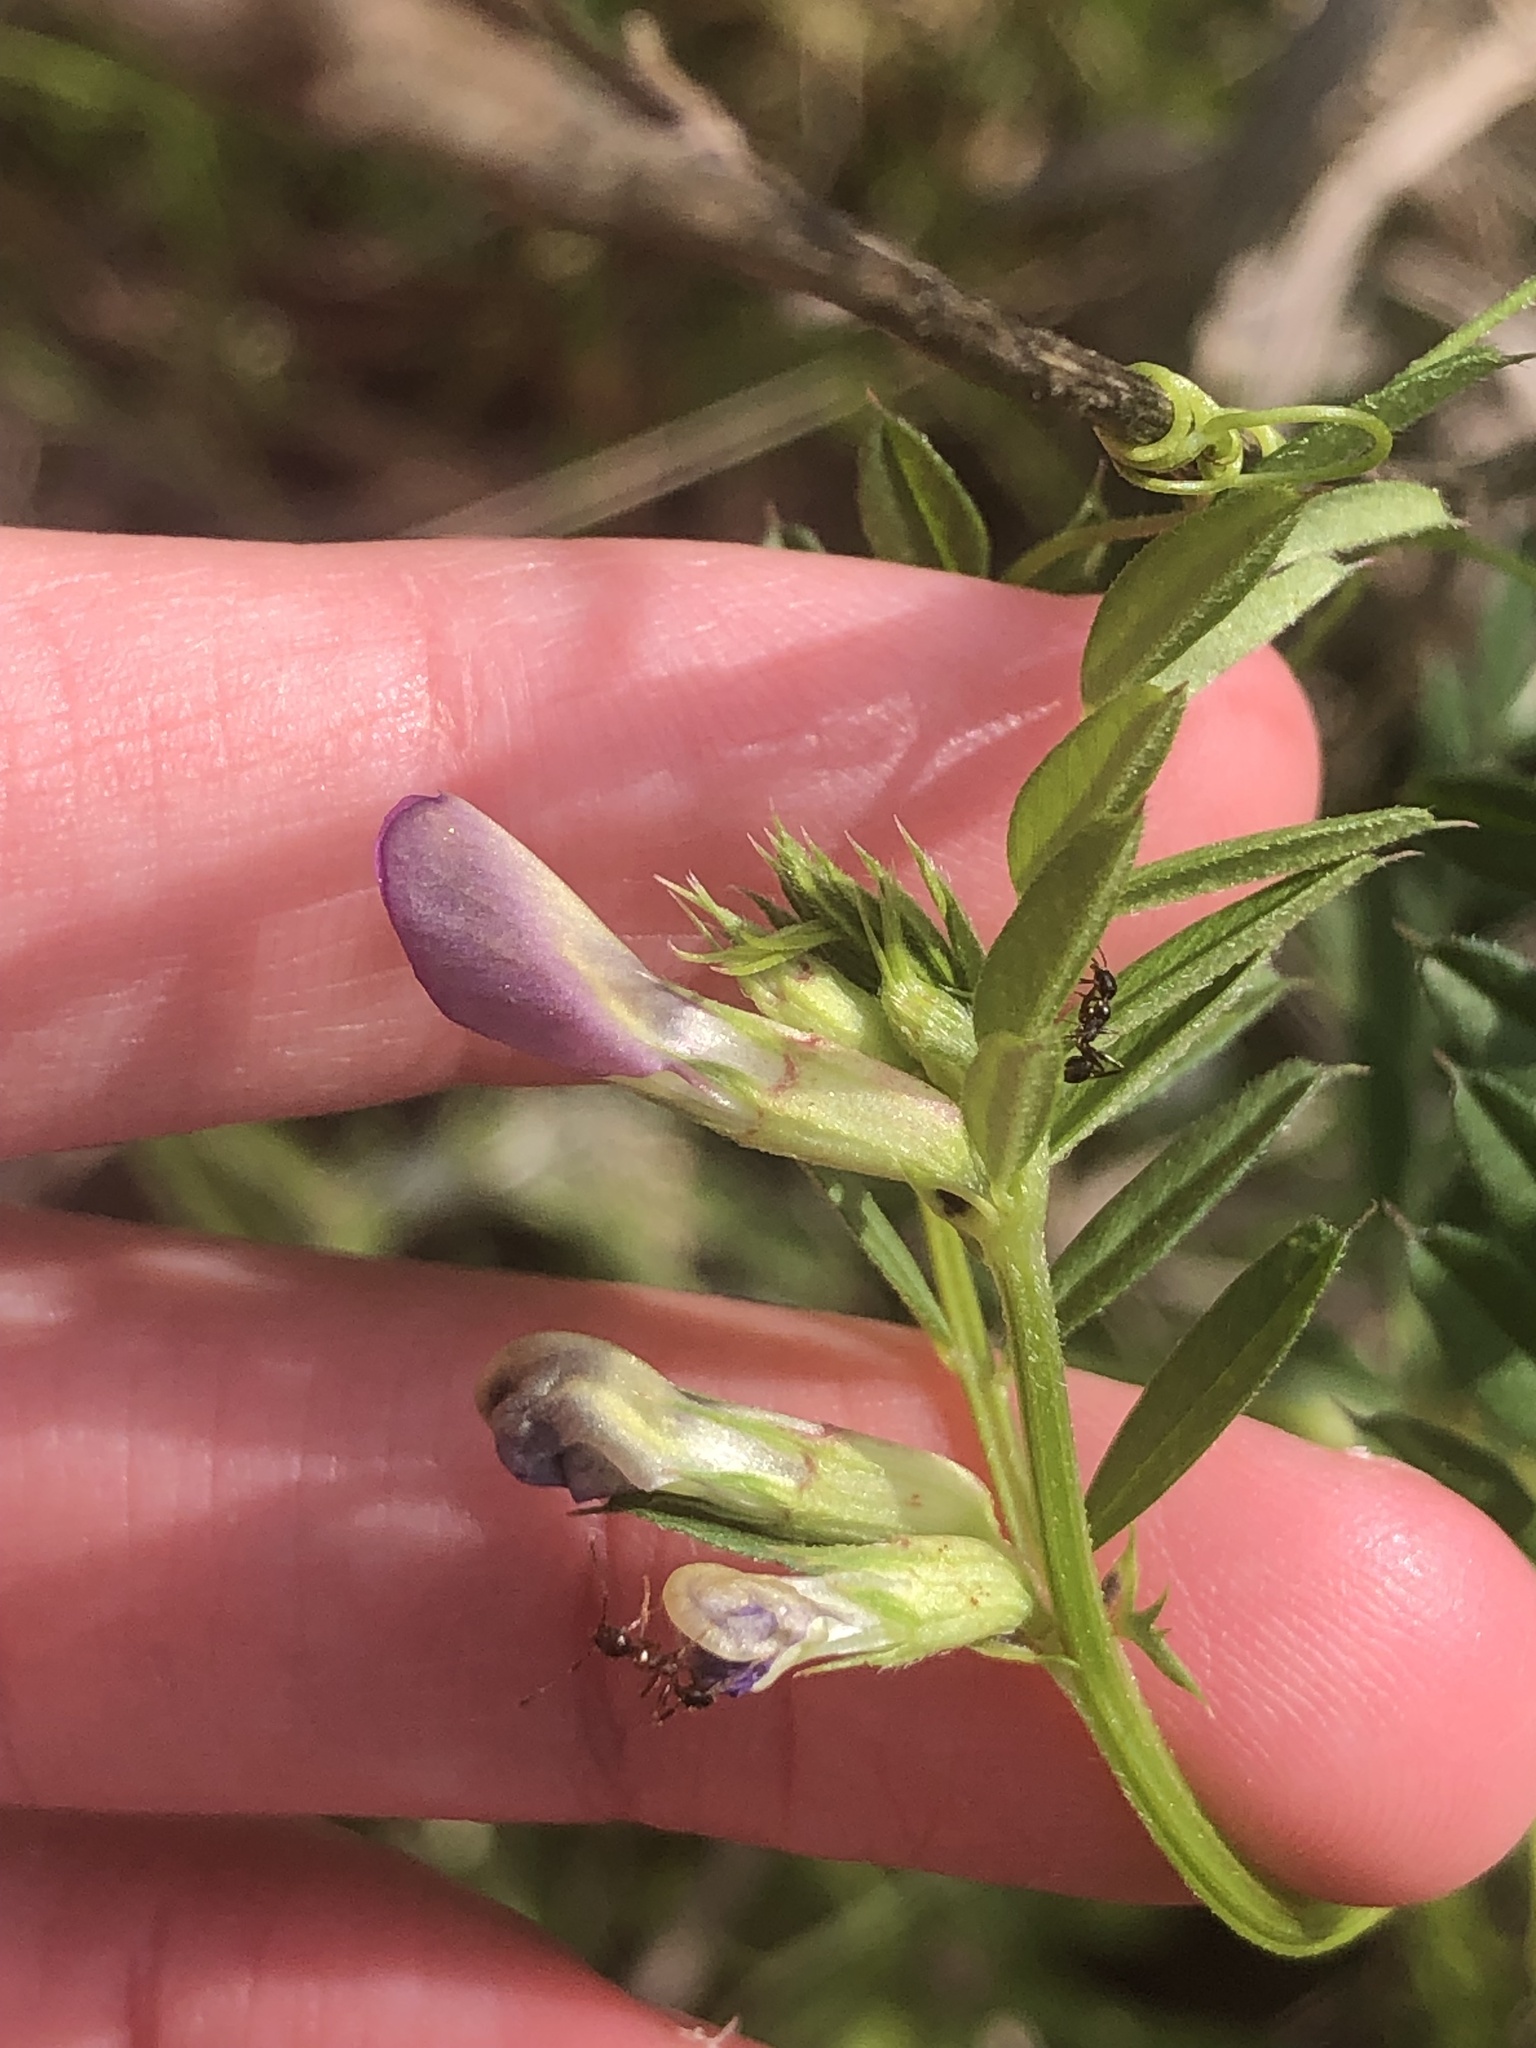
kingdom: Plantae
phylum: Tracheophyta
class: Magnoliopsida
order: Fabales
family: Fabaceae
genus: Vicia
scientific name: Vicia sativa
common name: Garden vetch
